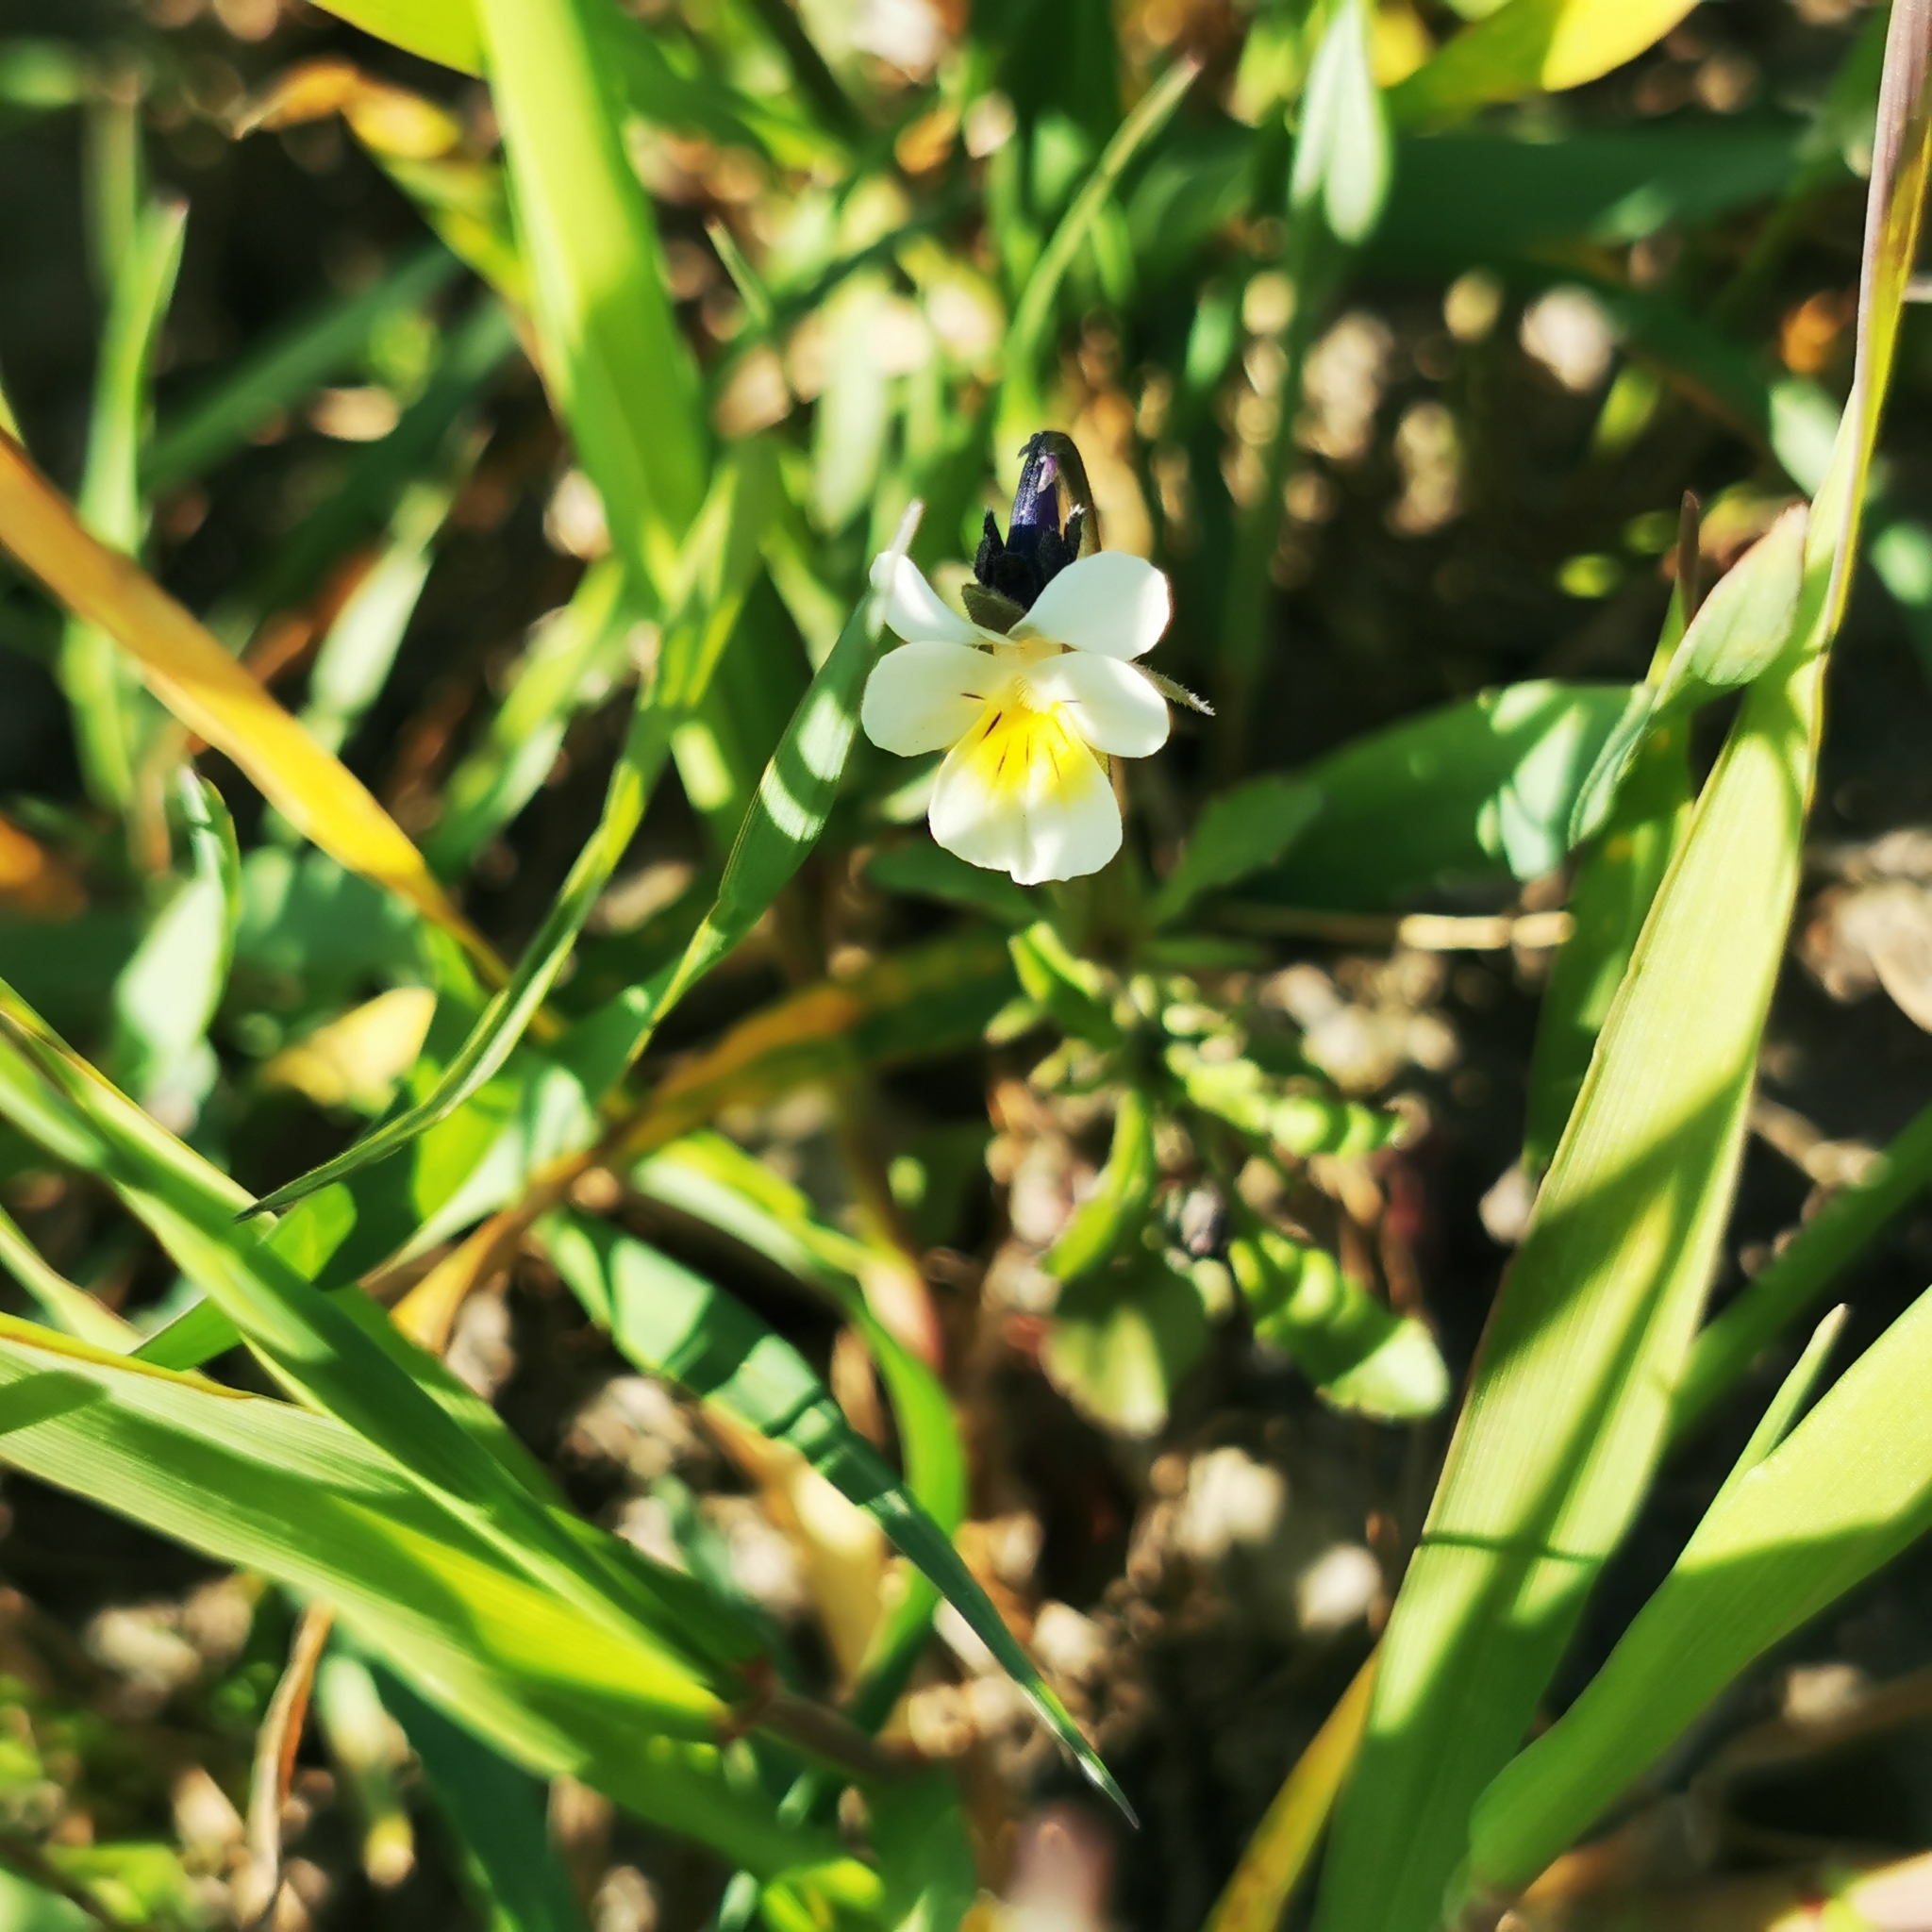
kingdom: Plantae
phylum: Tracheophyta
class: Magnoliopsida
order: Malpighiales
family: Violaceae
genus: Viola
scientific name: Viola arvensis
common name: Field pansy
